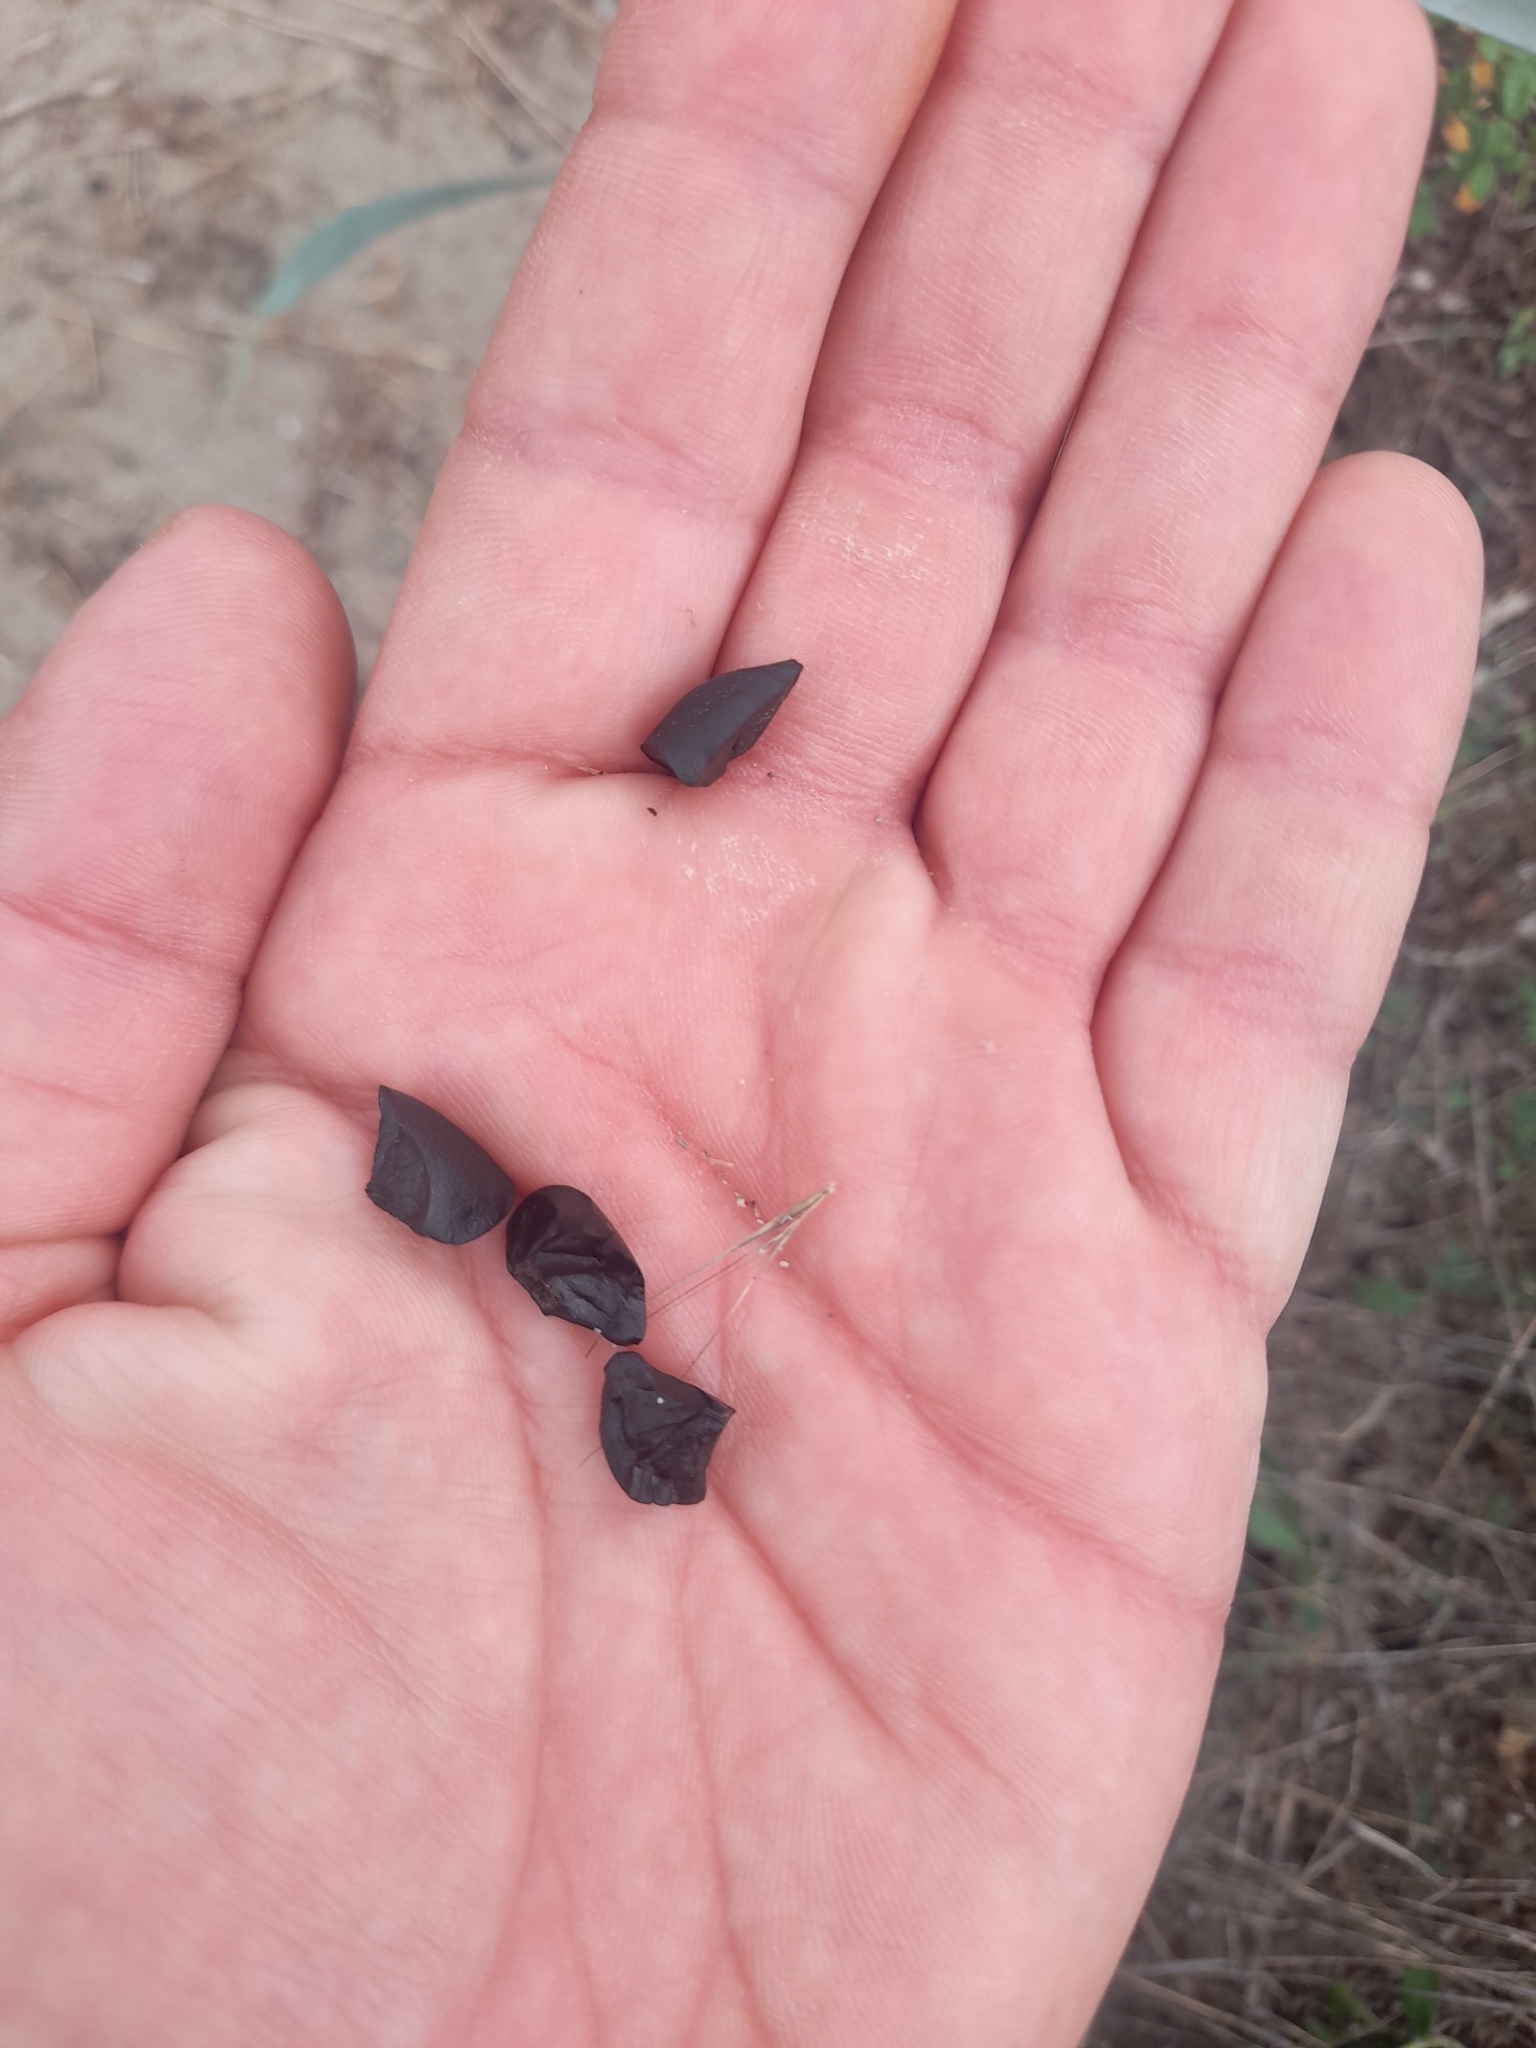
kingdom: Plantae
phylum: Tracheophyta
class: Liliopsida
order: Asparagales
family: Amaryllidaceae
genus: Pancratium
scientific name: Pancratium maritimum
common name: Sea-daffodil
